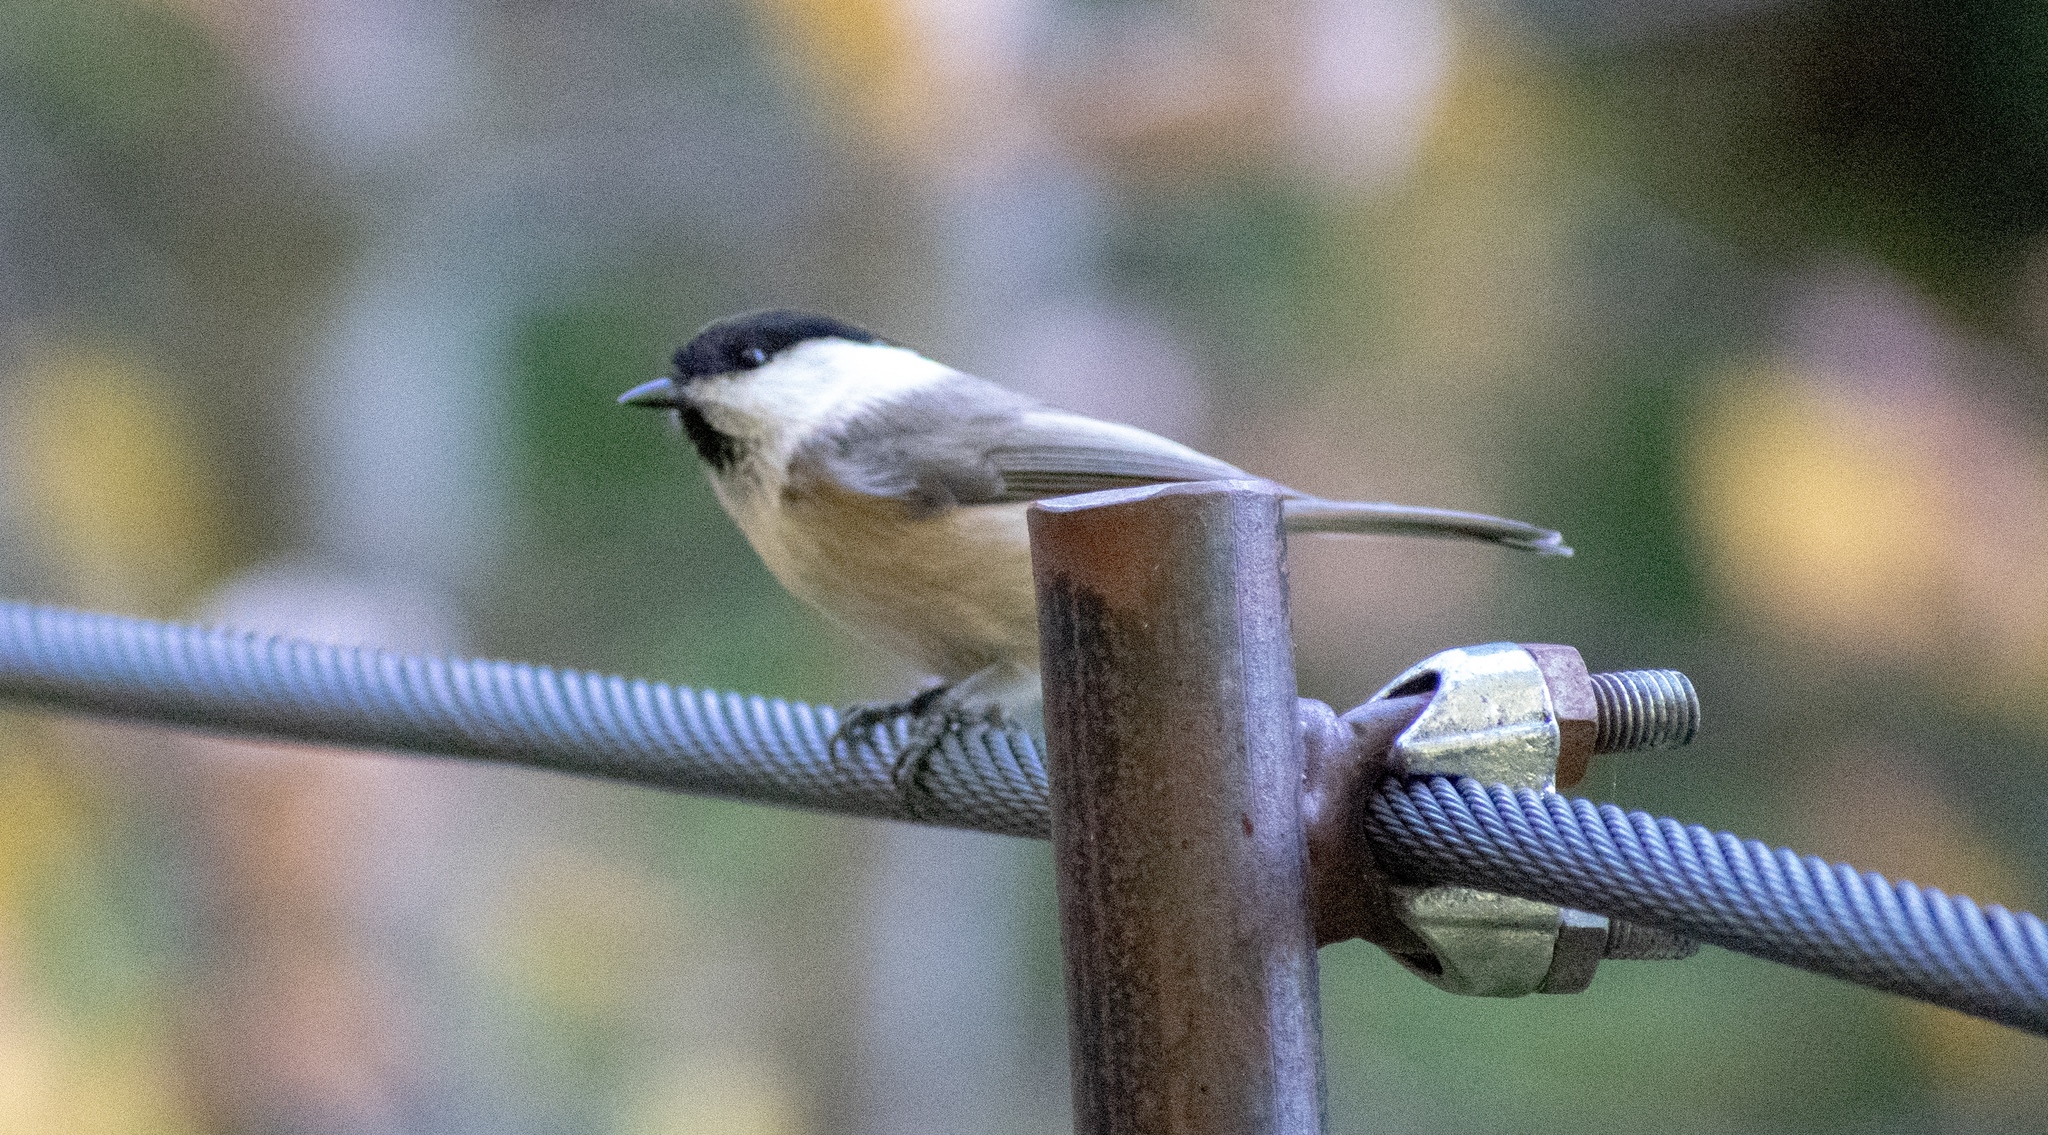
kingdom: Animalia
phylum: Chordata
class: Aves
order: Passeriformes
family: Paridae
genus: Poecile
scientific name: Poecile montanus
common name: Willow tit
